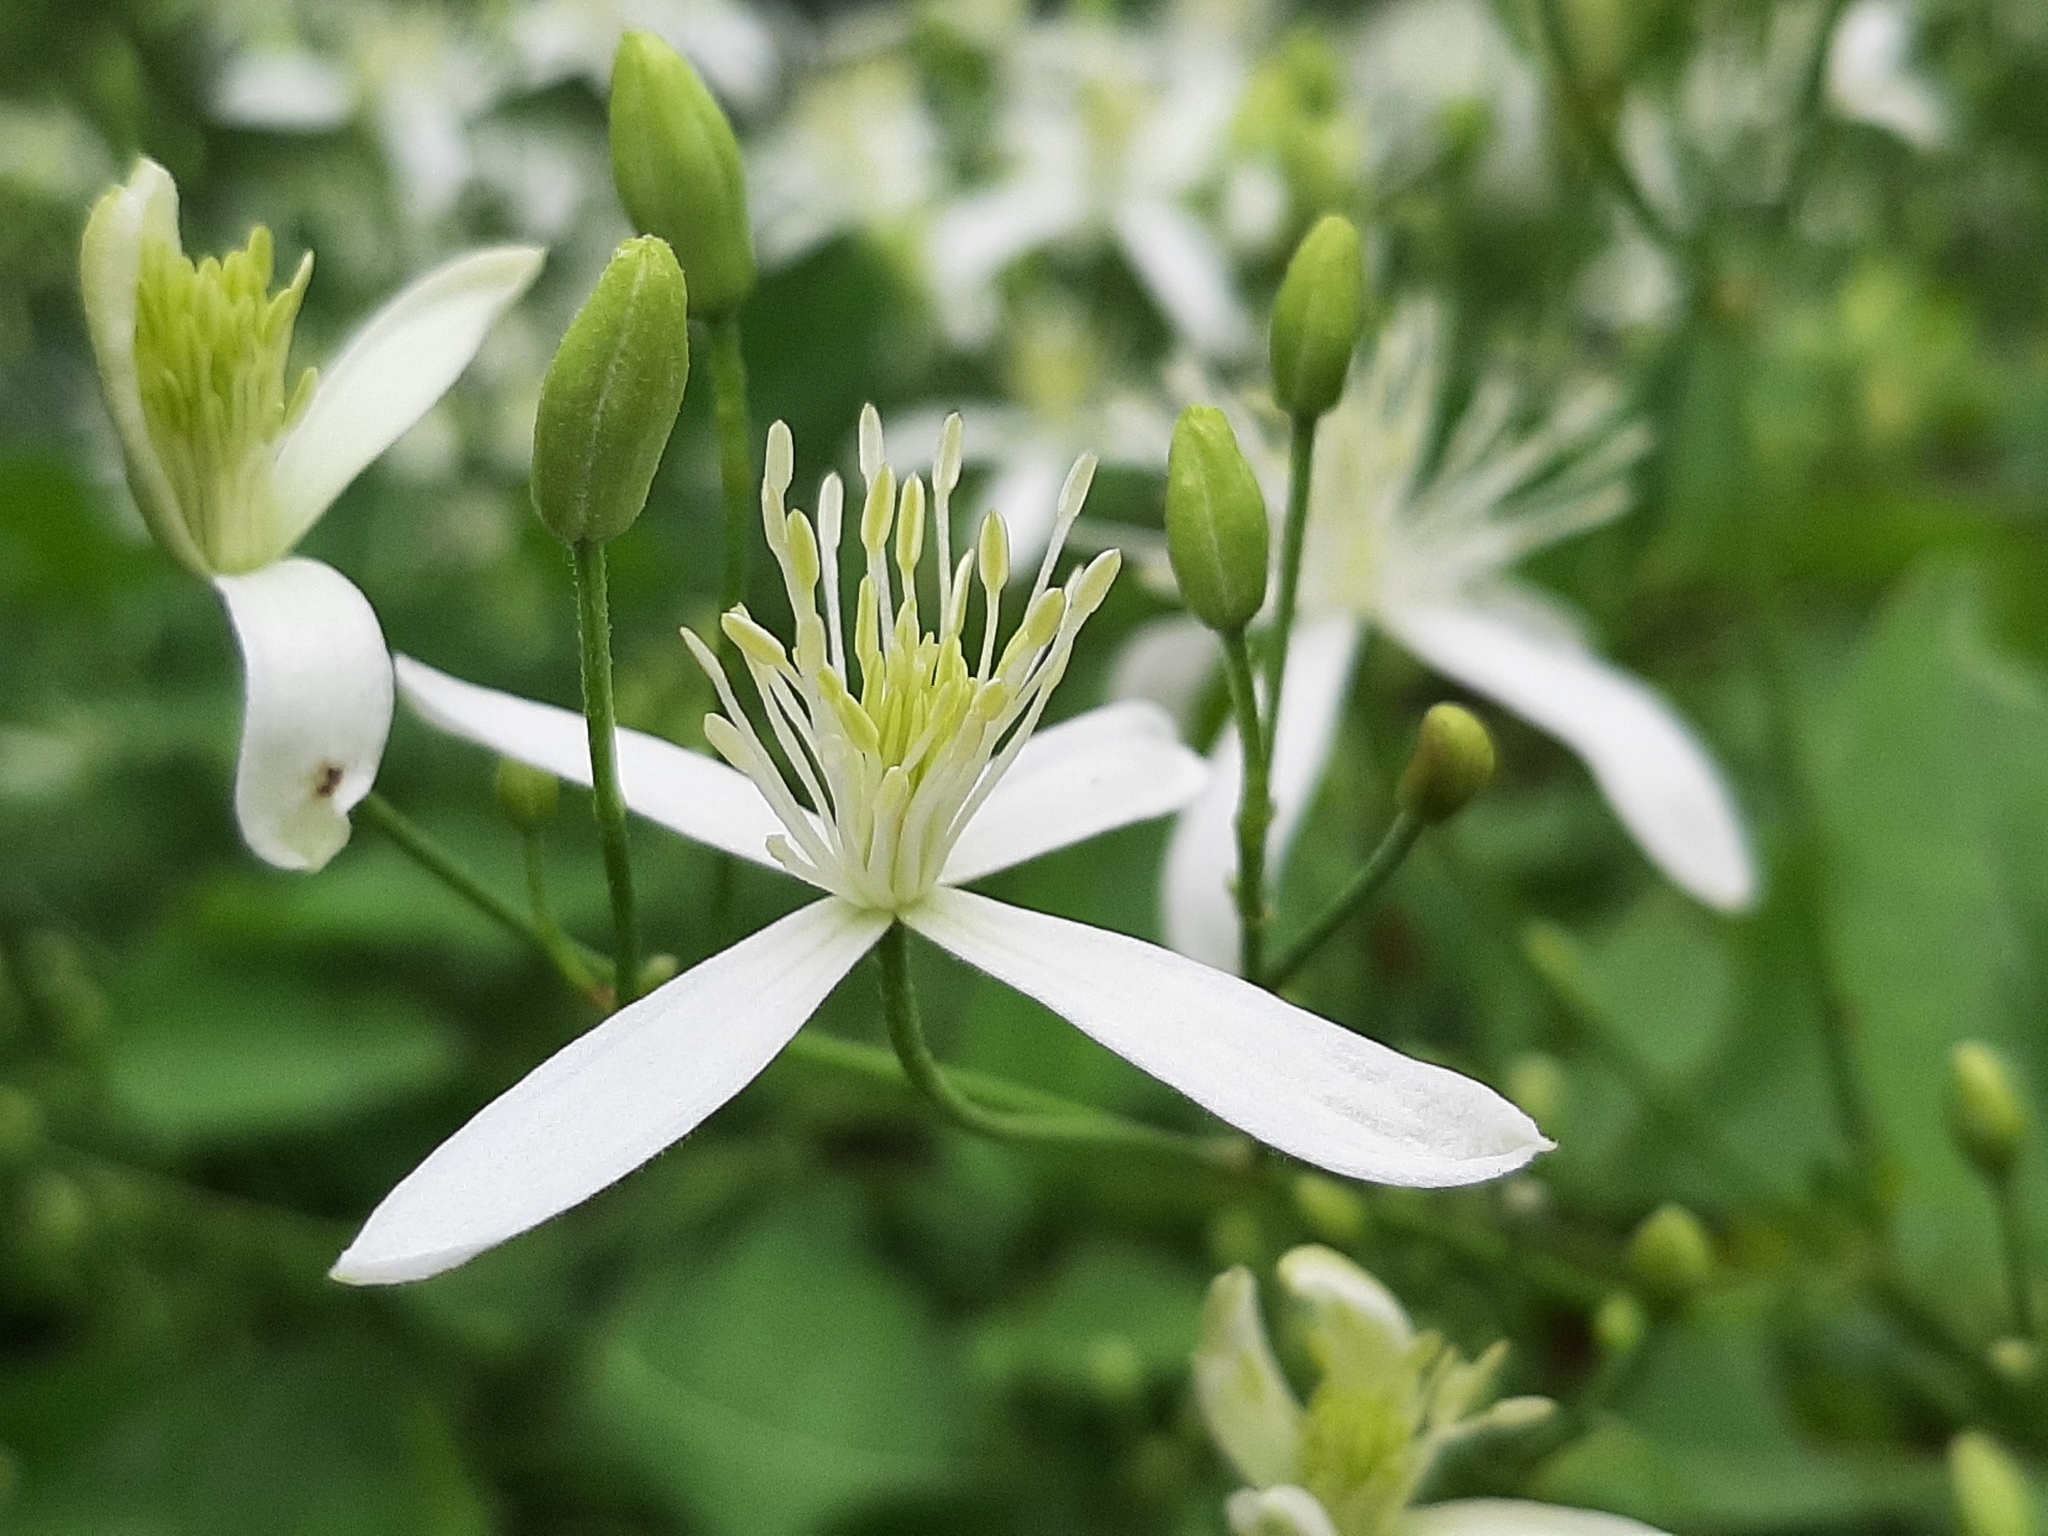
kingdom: Plantae
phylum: Tracheophyta
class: Magnoliopsida
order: Ranunculales
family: Ranunculaceae
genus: Clematis
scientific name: Clematis terniflora
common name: Sweet autumn clematis
